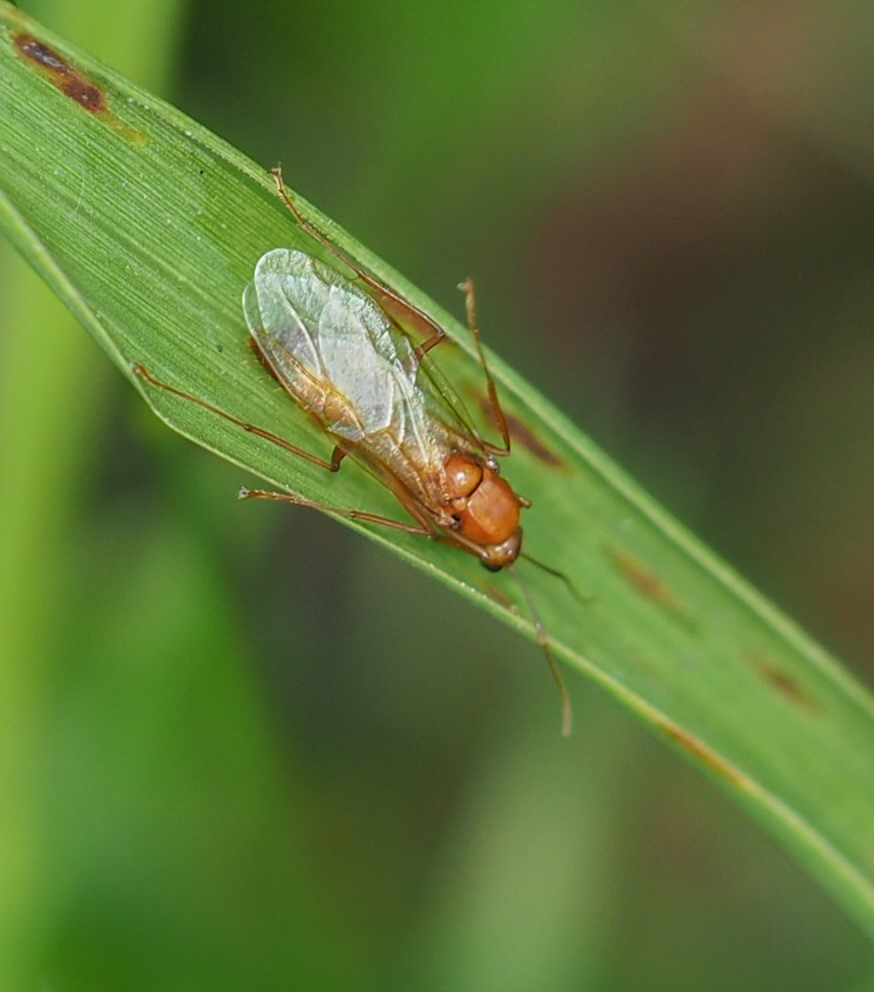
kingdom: Animalia
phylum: Arthropoda
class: Insecta
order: Hymenoptera
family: Formicidae
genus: Camponotus
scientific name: Camponotus castaneus
